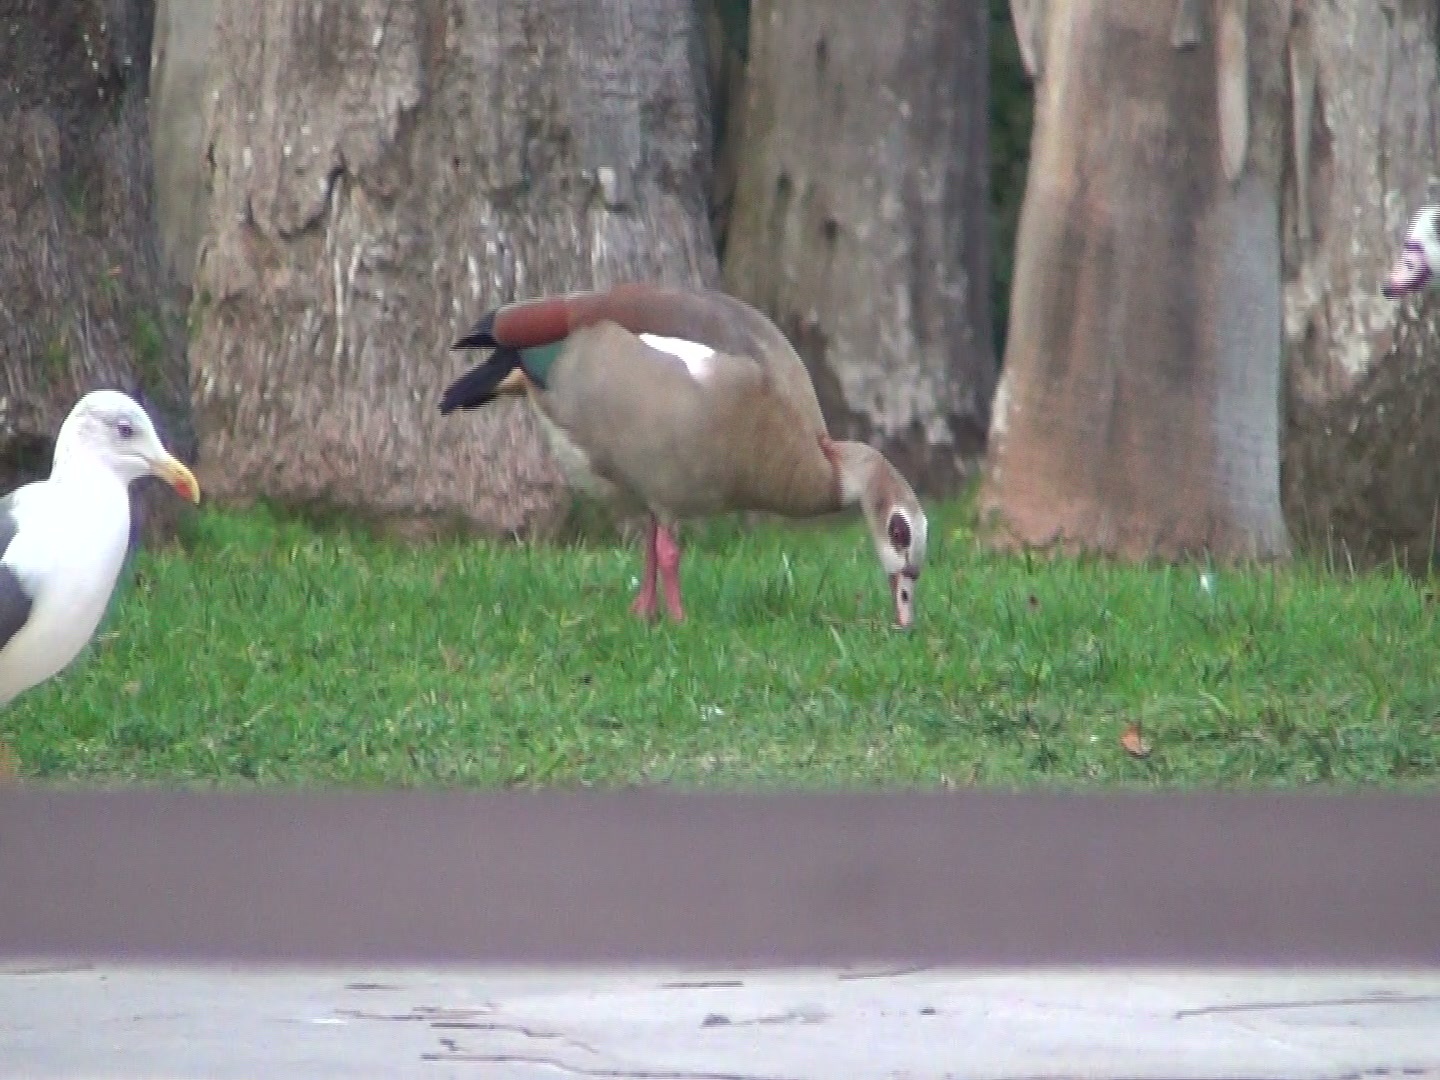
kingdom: Animalia
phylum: Chordata
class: Aves
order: Anseriformes
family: Anatidae
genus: Alopochen
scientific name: Alopochen aegyptiaca
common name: Egyptian goose
